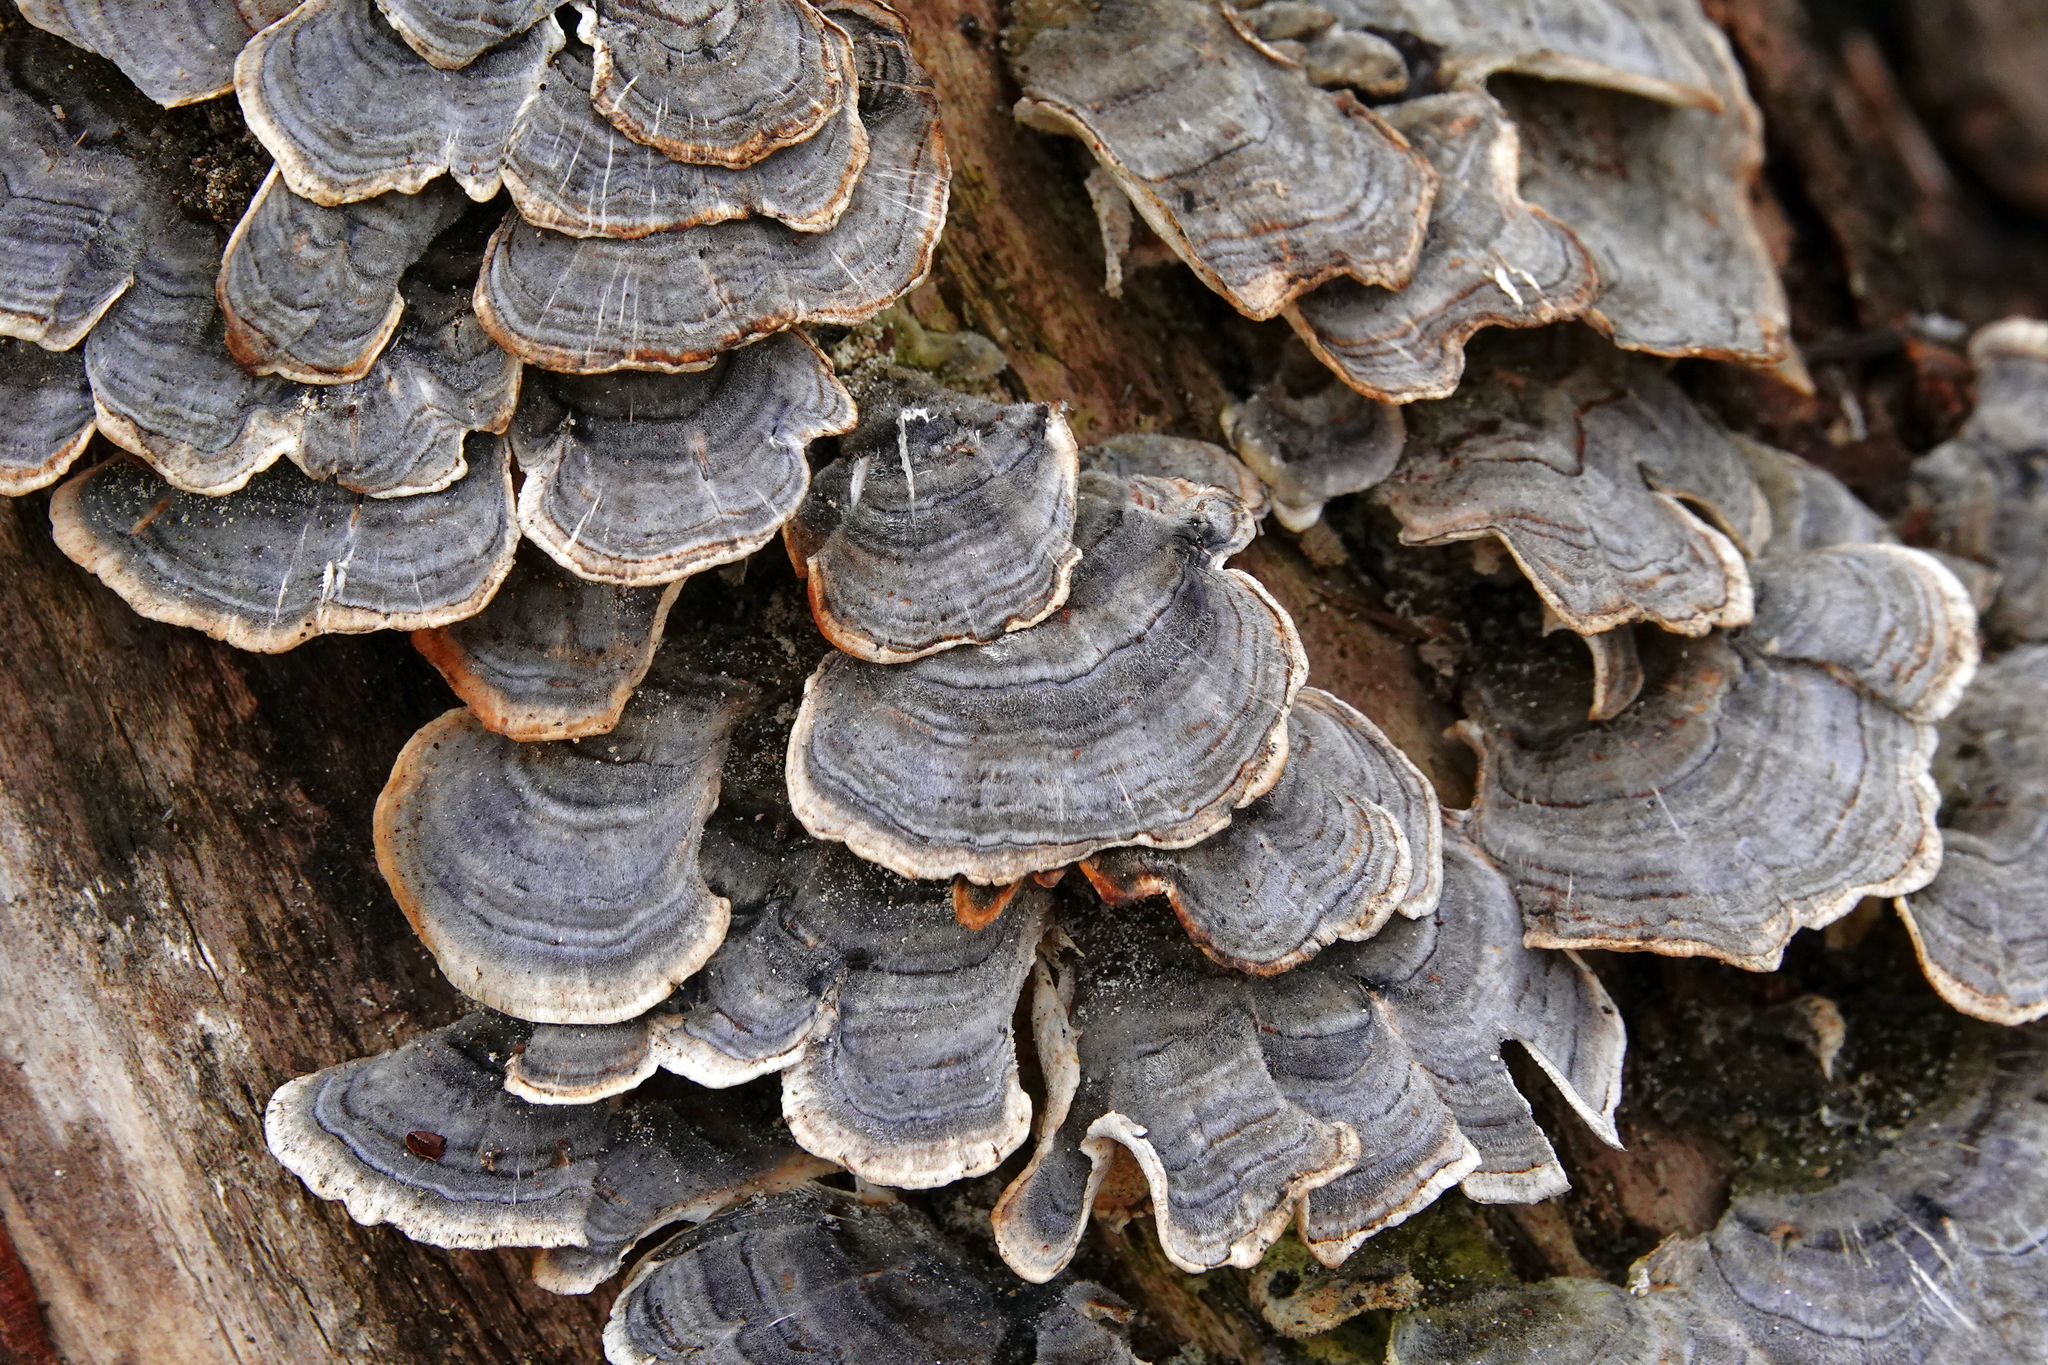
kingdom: Fungi
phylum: Basidiomycota
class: Agaricomycetes
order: Polyporales
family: Polyporaceae
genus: Trametes
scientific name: Trametes versicolor
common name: Turkeytail
